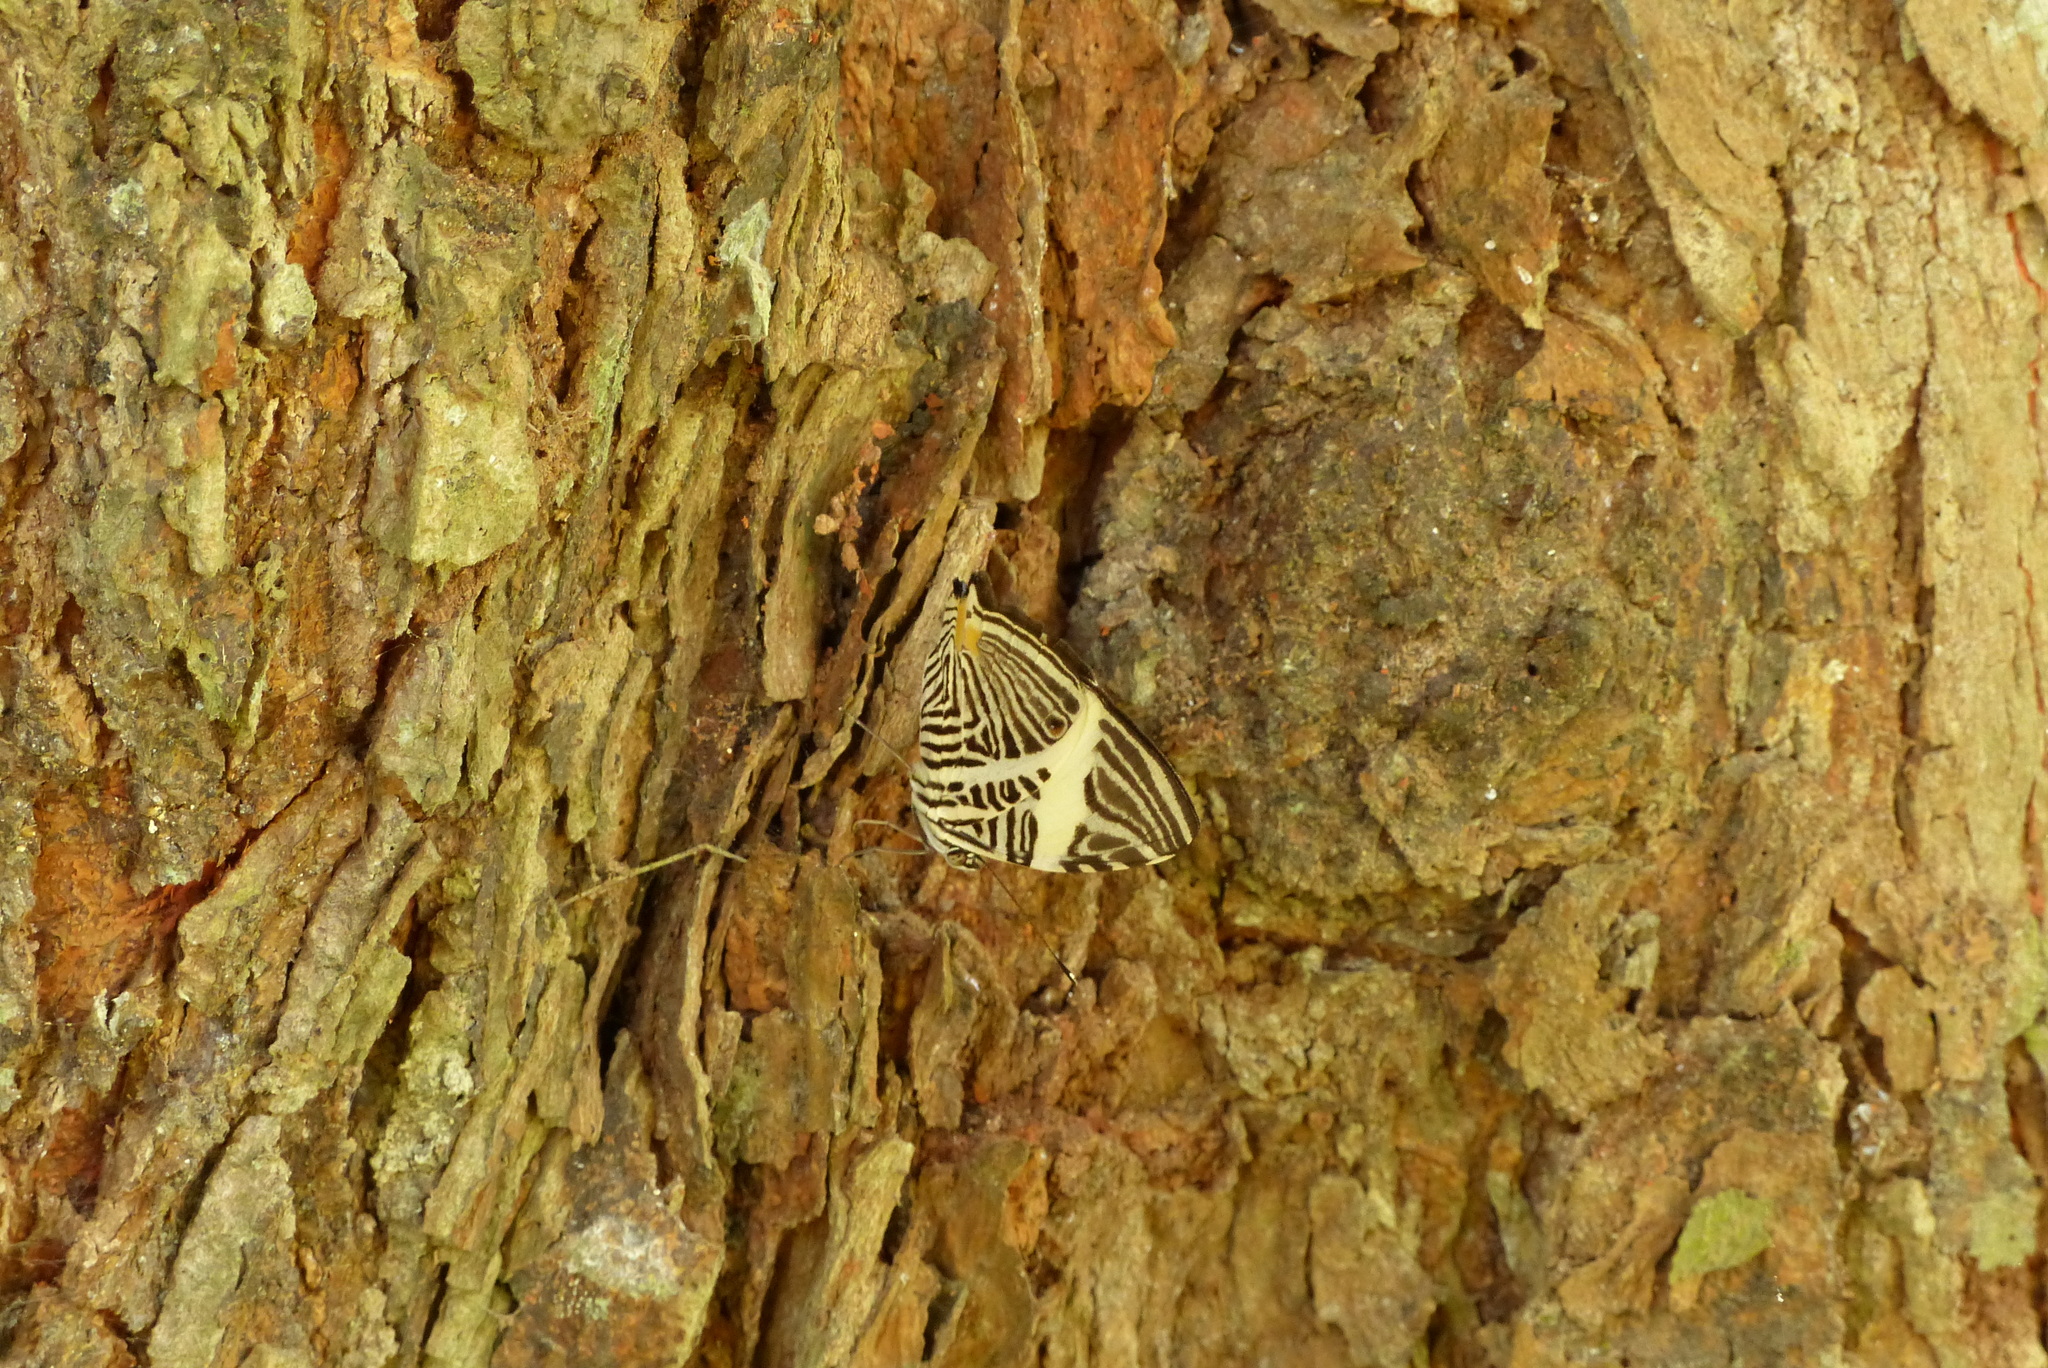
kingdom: Animalia
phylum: Arthropoda
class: Insecta
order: Lepidoptera
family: Nymphalidae
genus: Colobura
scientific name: Colobura dirce
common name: Dirce beauty
